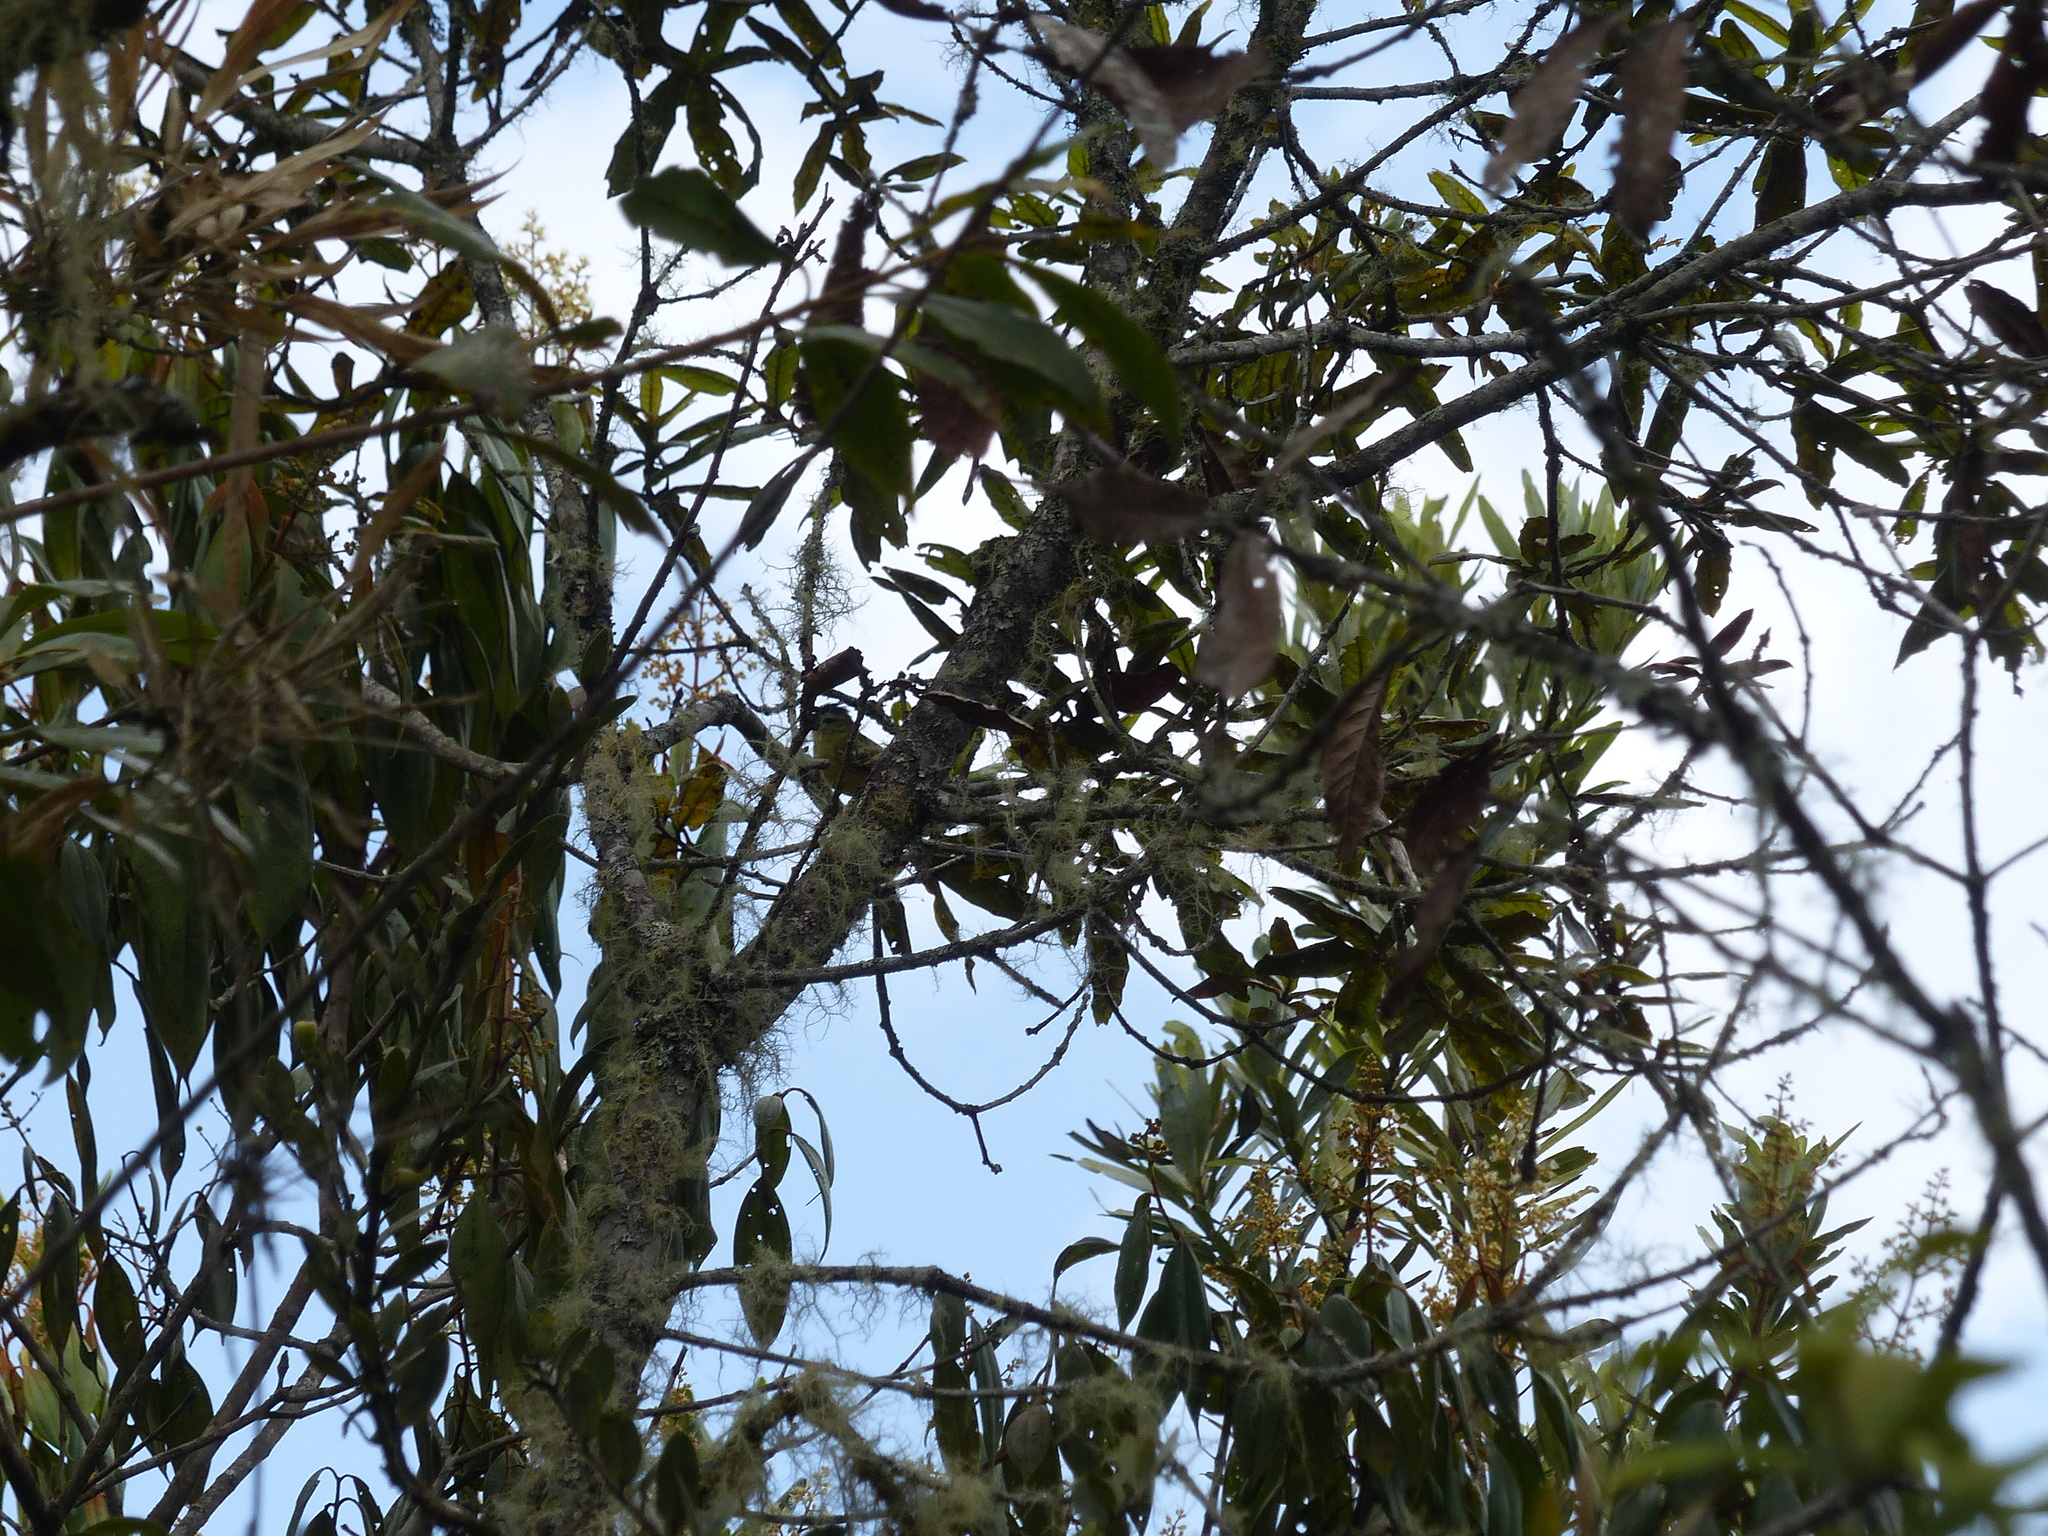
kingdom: Animalia
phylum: Chordata
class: Aves
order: Passeriformes
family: Vireonidae
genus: Vireo
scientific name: Vireo leucophrys
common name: Brown-capped vireo
